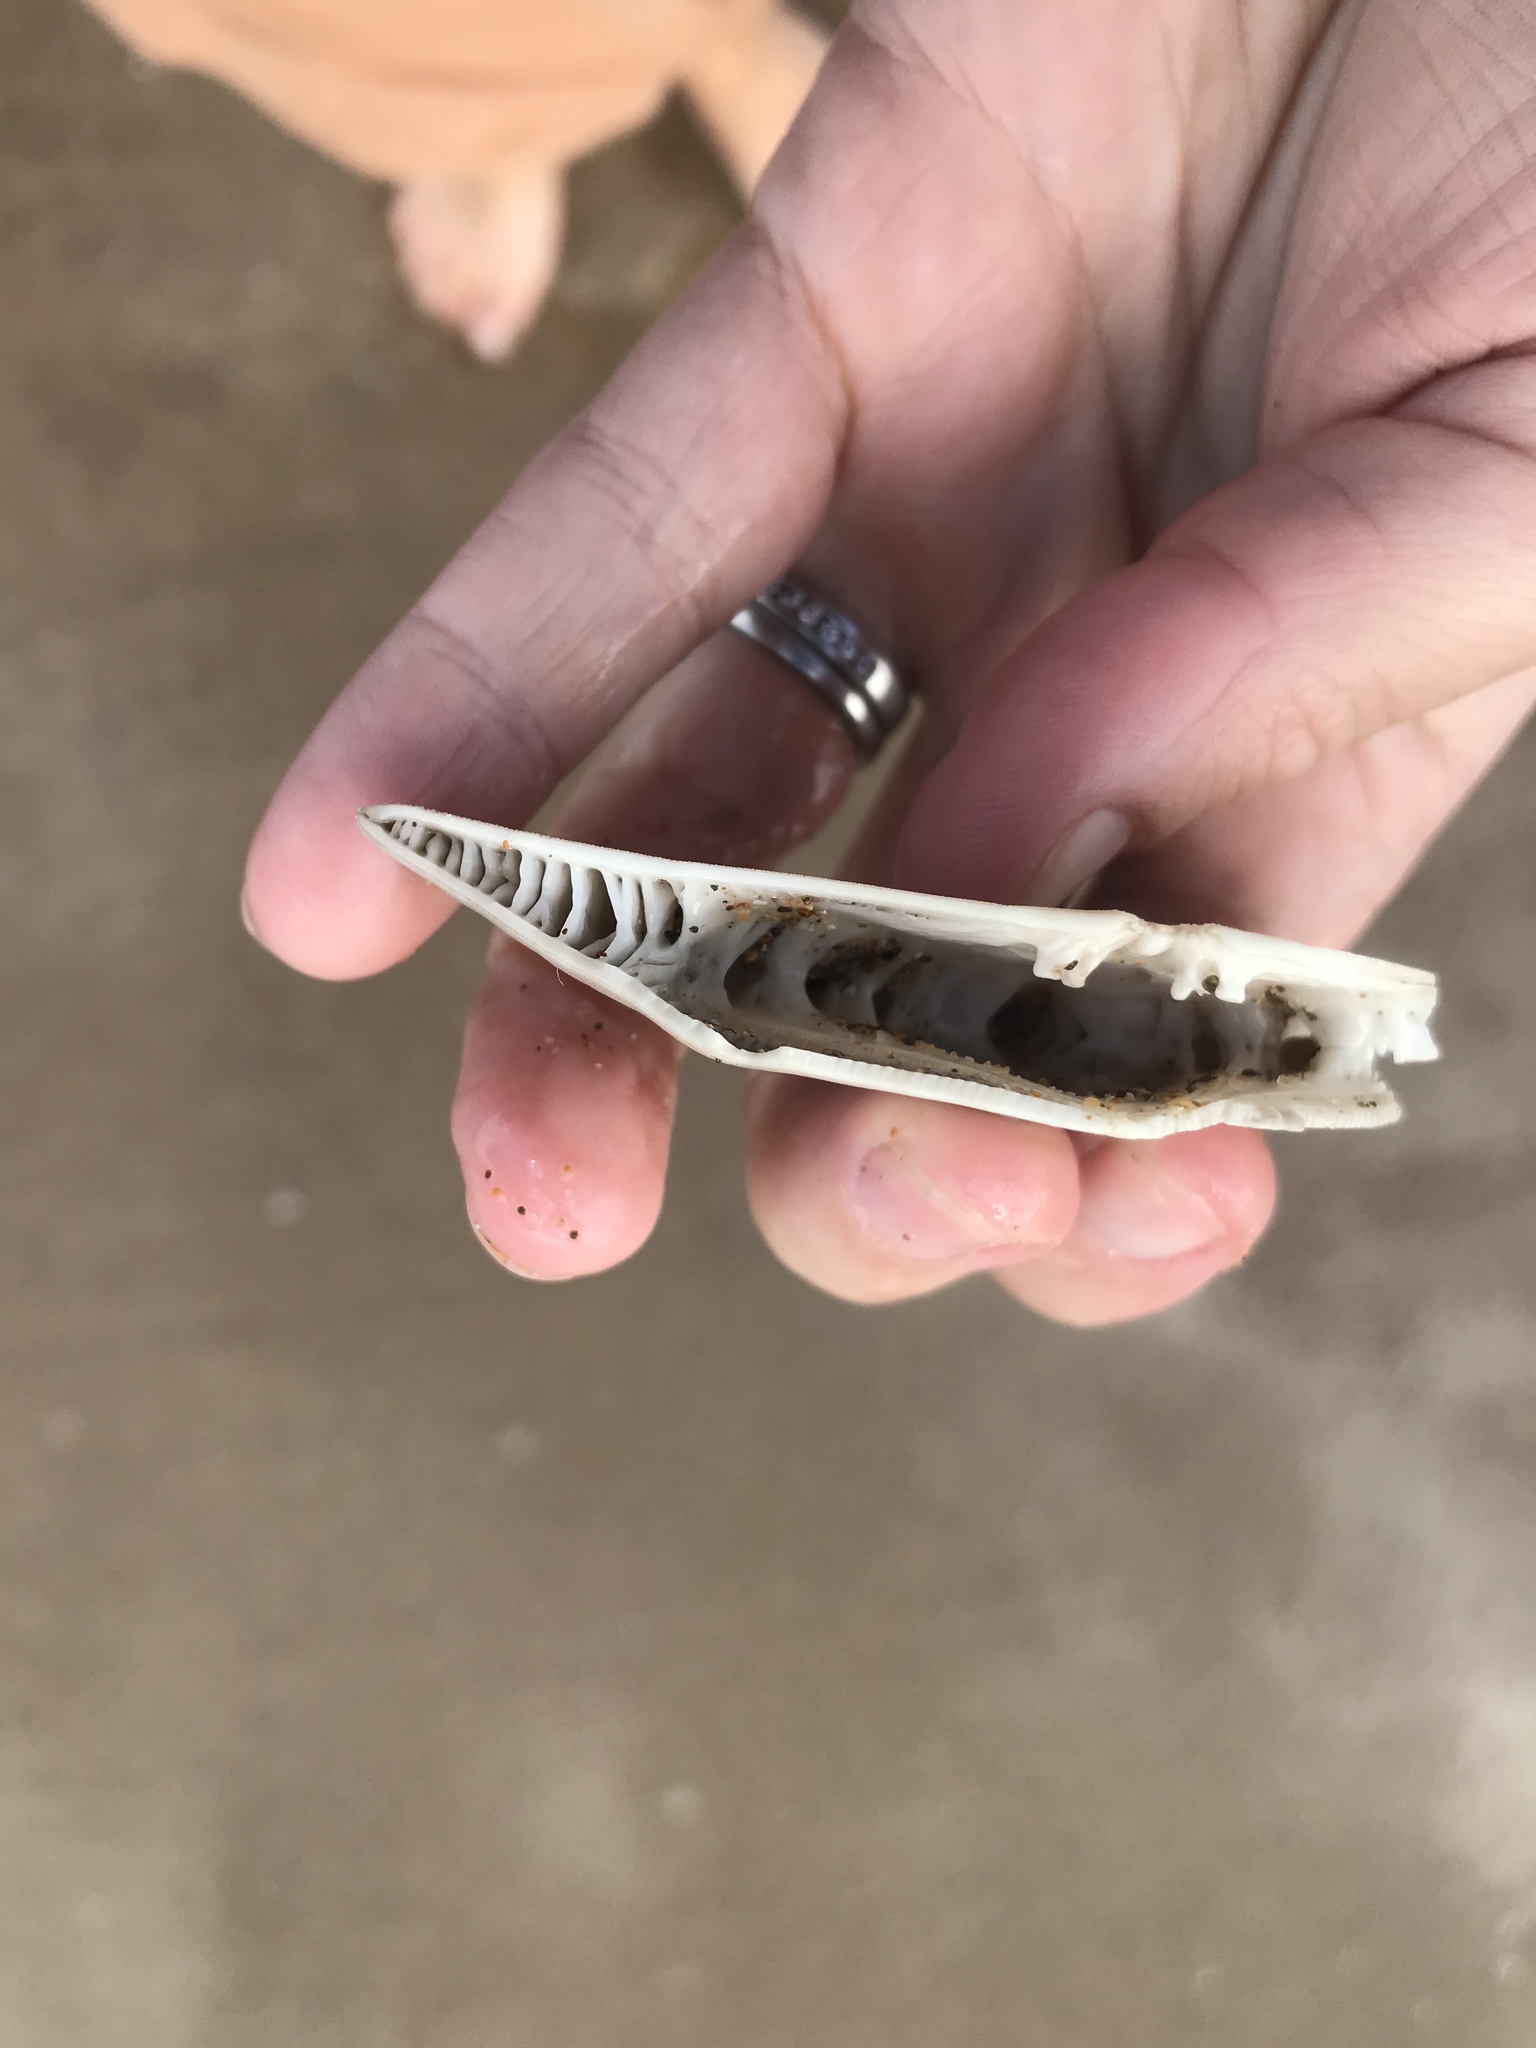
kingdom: Animalia
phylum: Echinodermata
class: Echinoidea
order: Clypeasteroida
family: Clypeasteridae
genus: Fellaster
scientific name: Fellaster zelandiae
